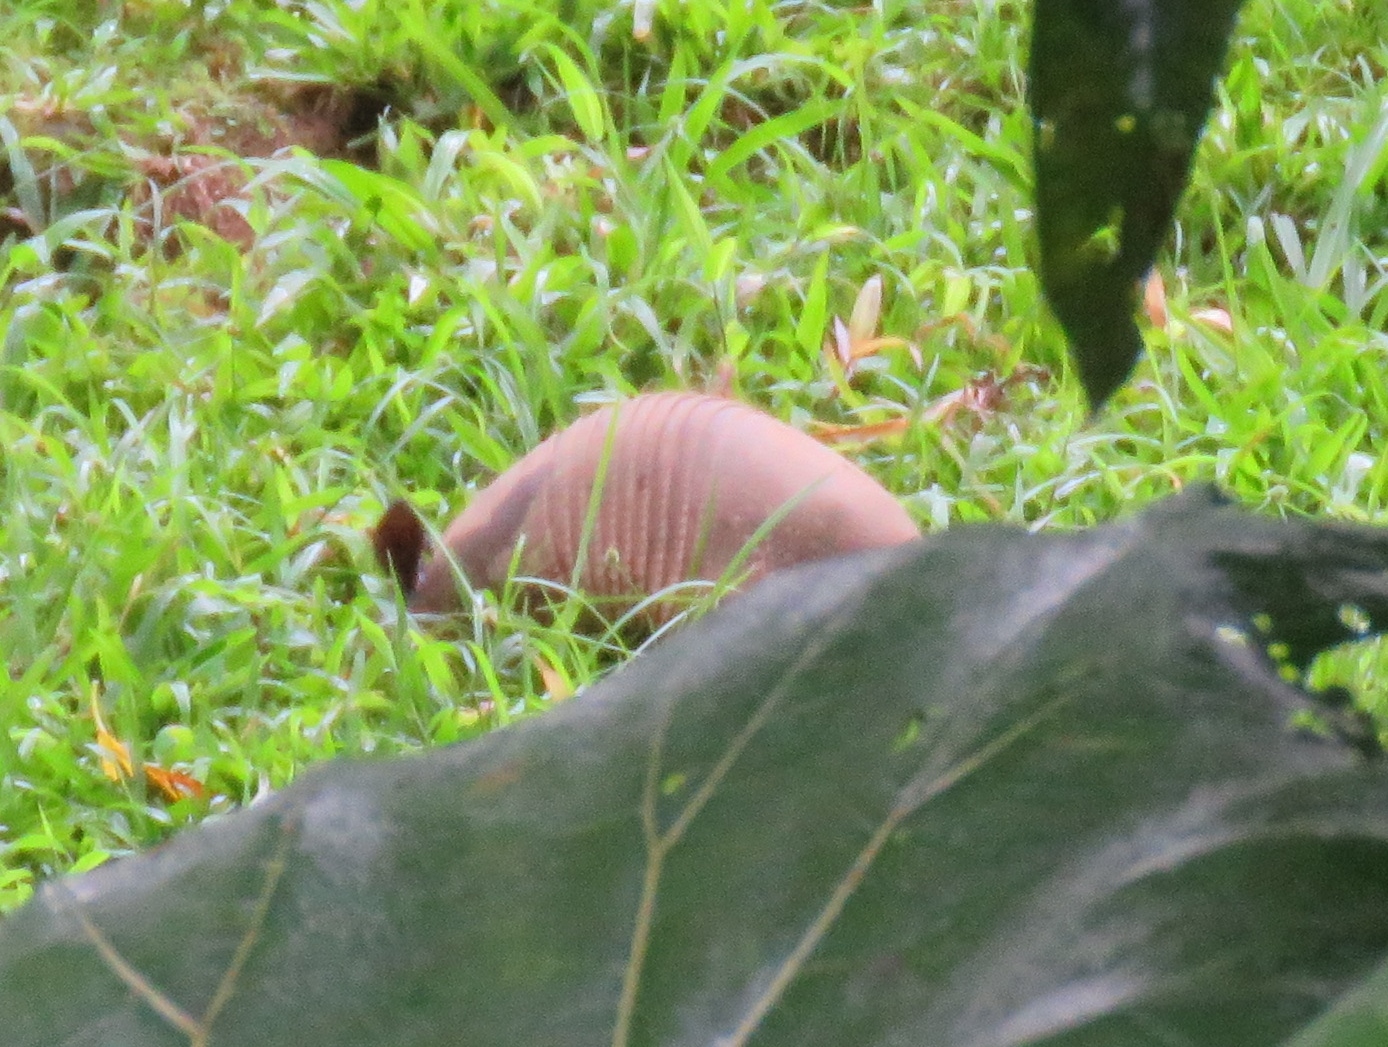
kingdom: Animalia
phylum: Chordata
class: Mammalia
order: Cingulata
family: Dasypodidae
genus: Dasypus
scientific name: Dasypus novemcinctus
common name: Nine-banded armadillo
